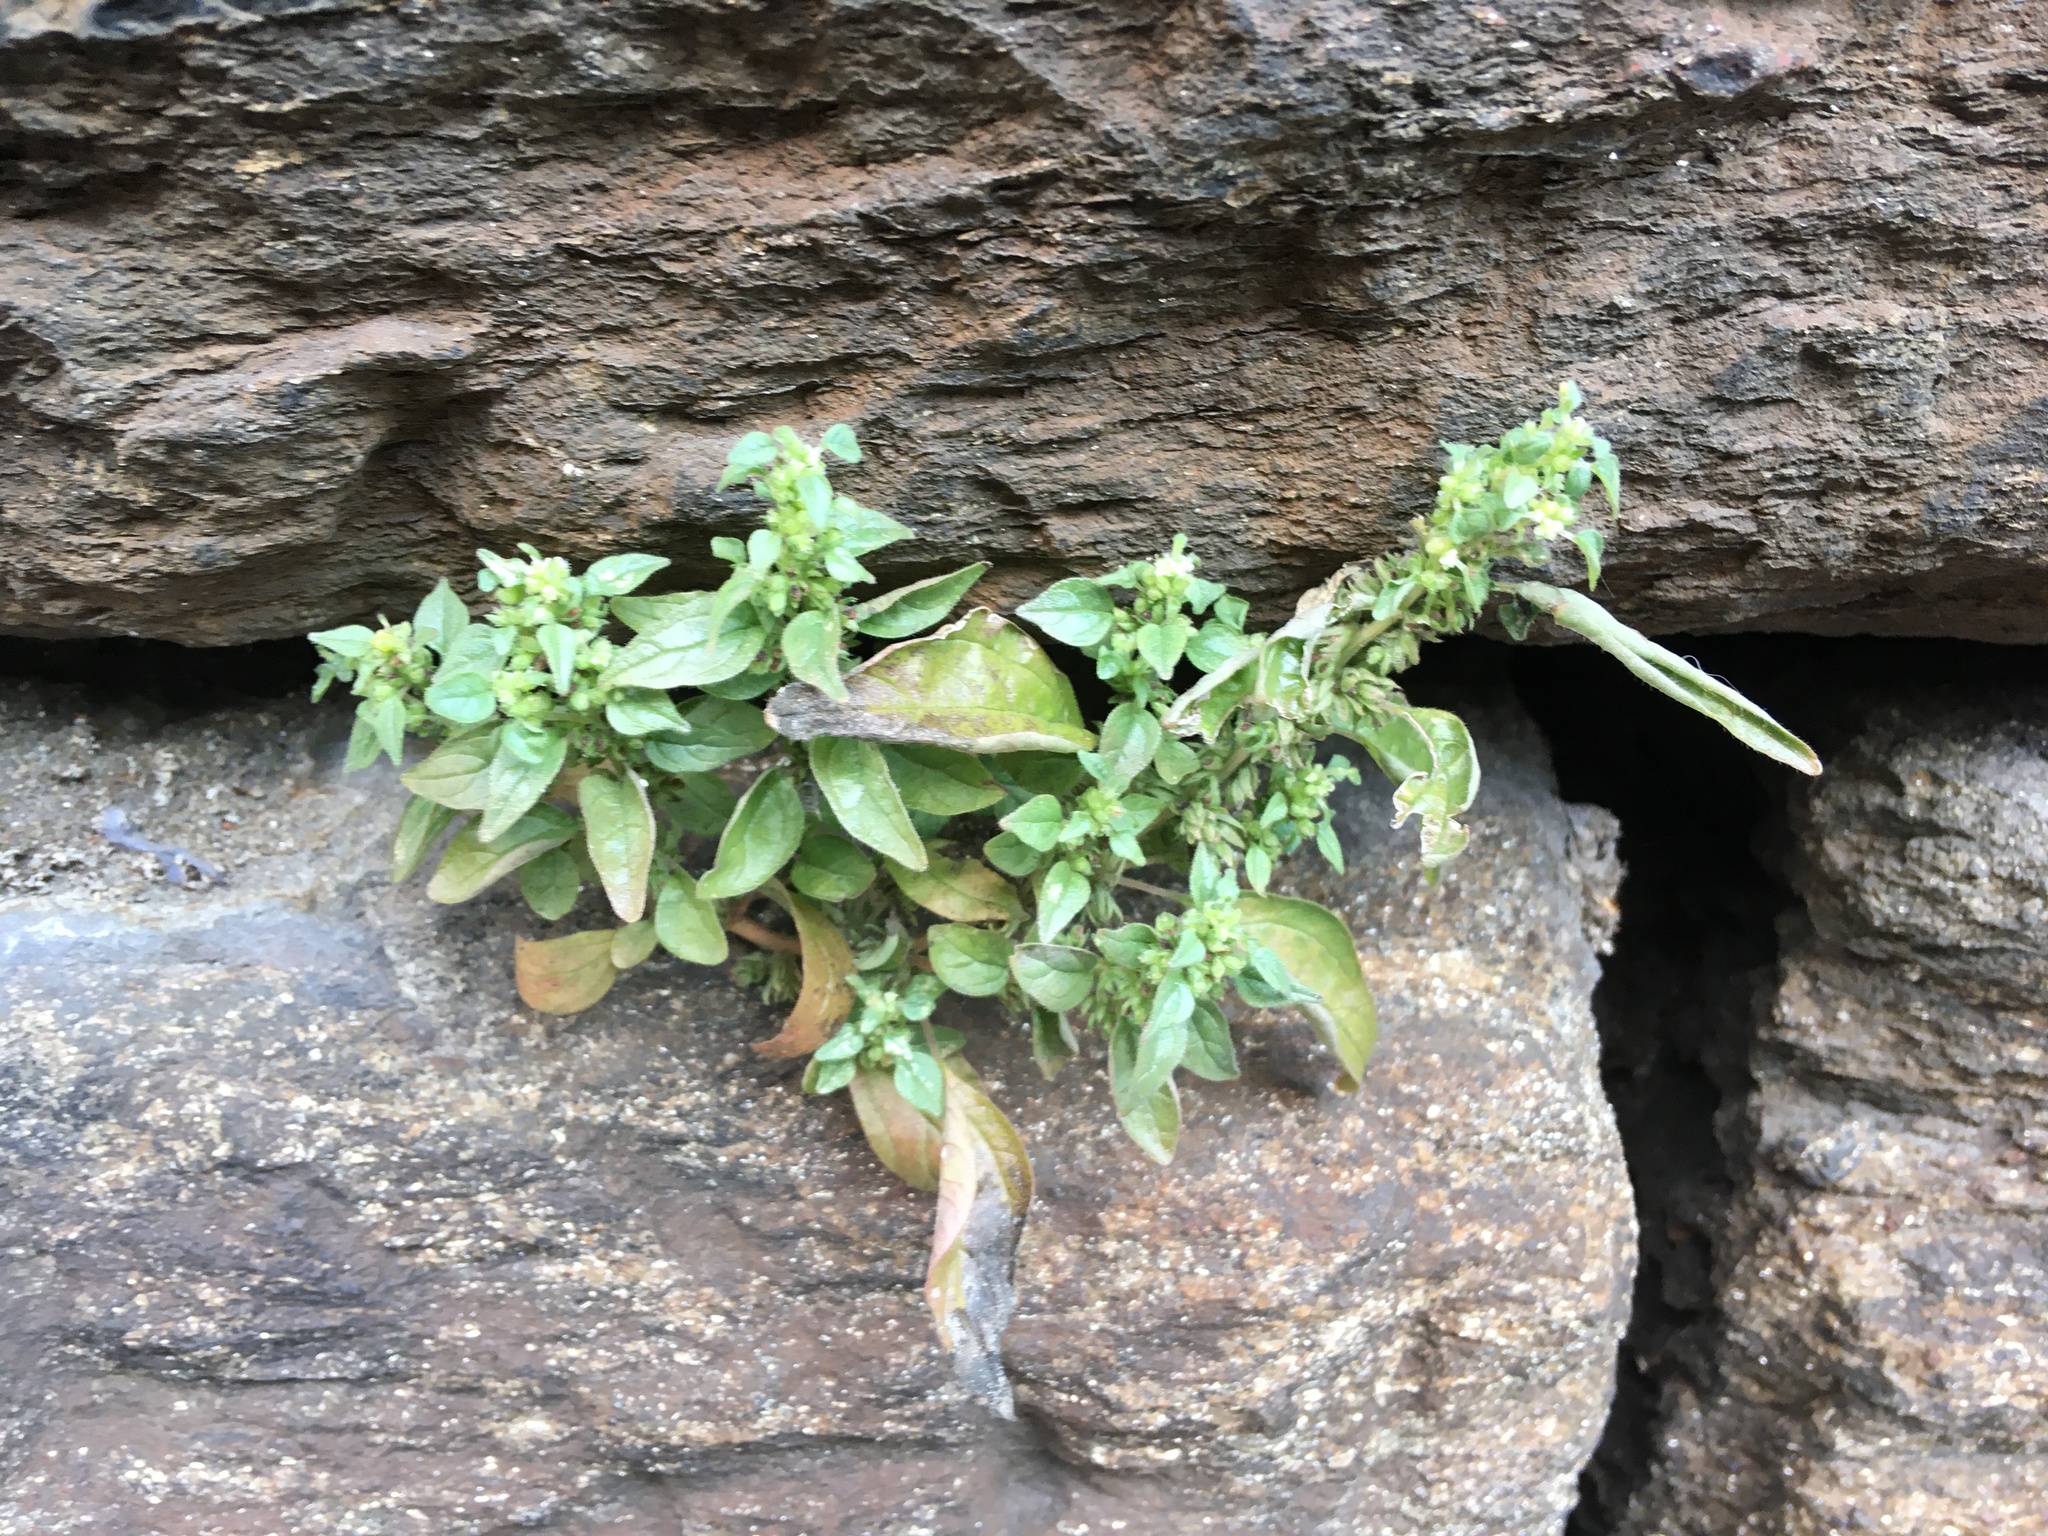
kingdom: Plantae
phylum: Tracheophyta
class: Magnoliopsida
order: Rosales
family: Urticaceae
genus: Parietaria
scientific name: Parietaria pensylvanica
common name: Pennsylvania pellitory
